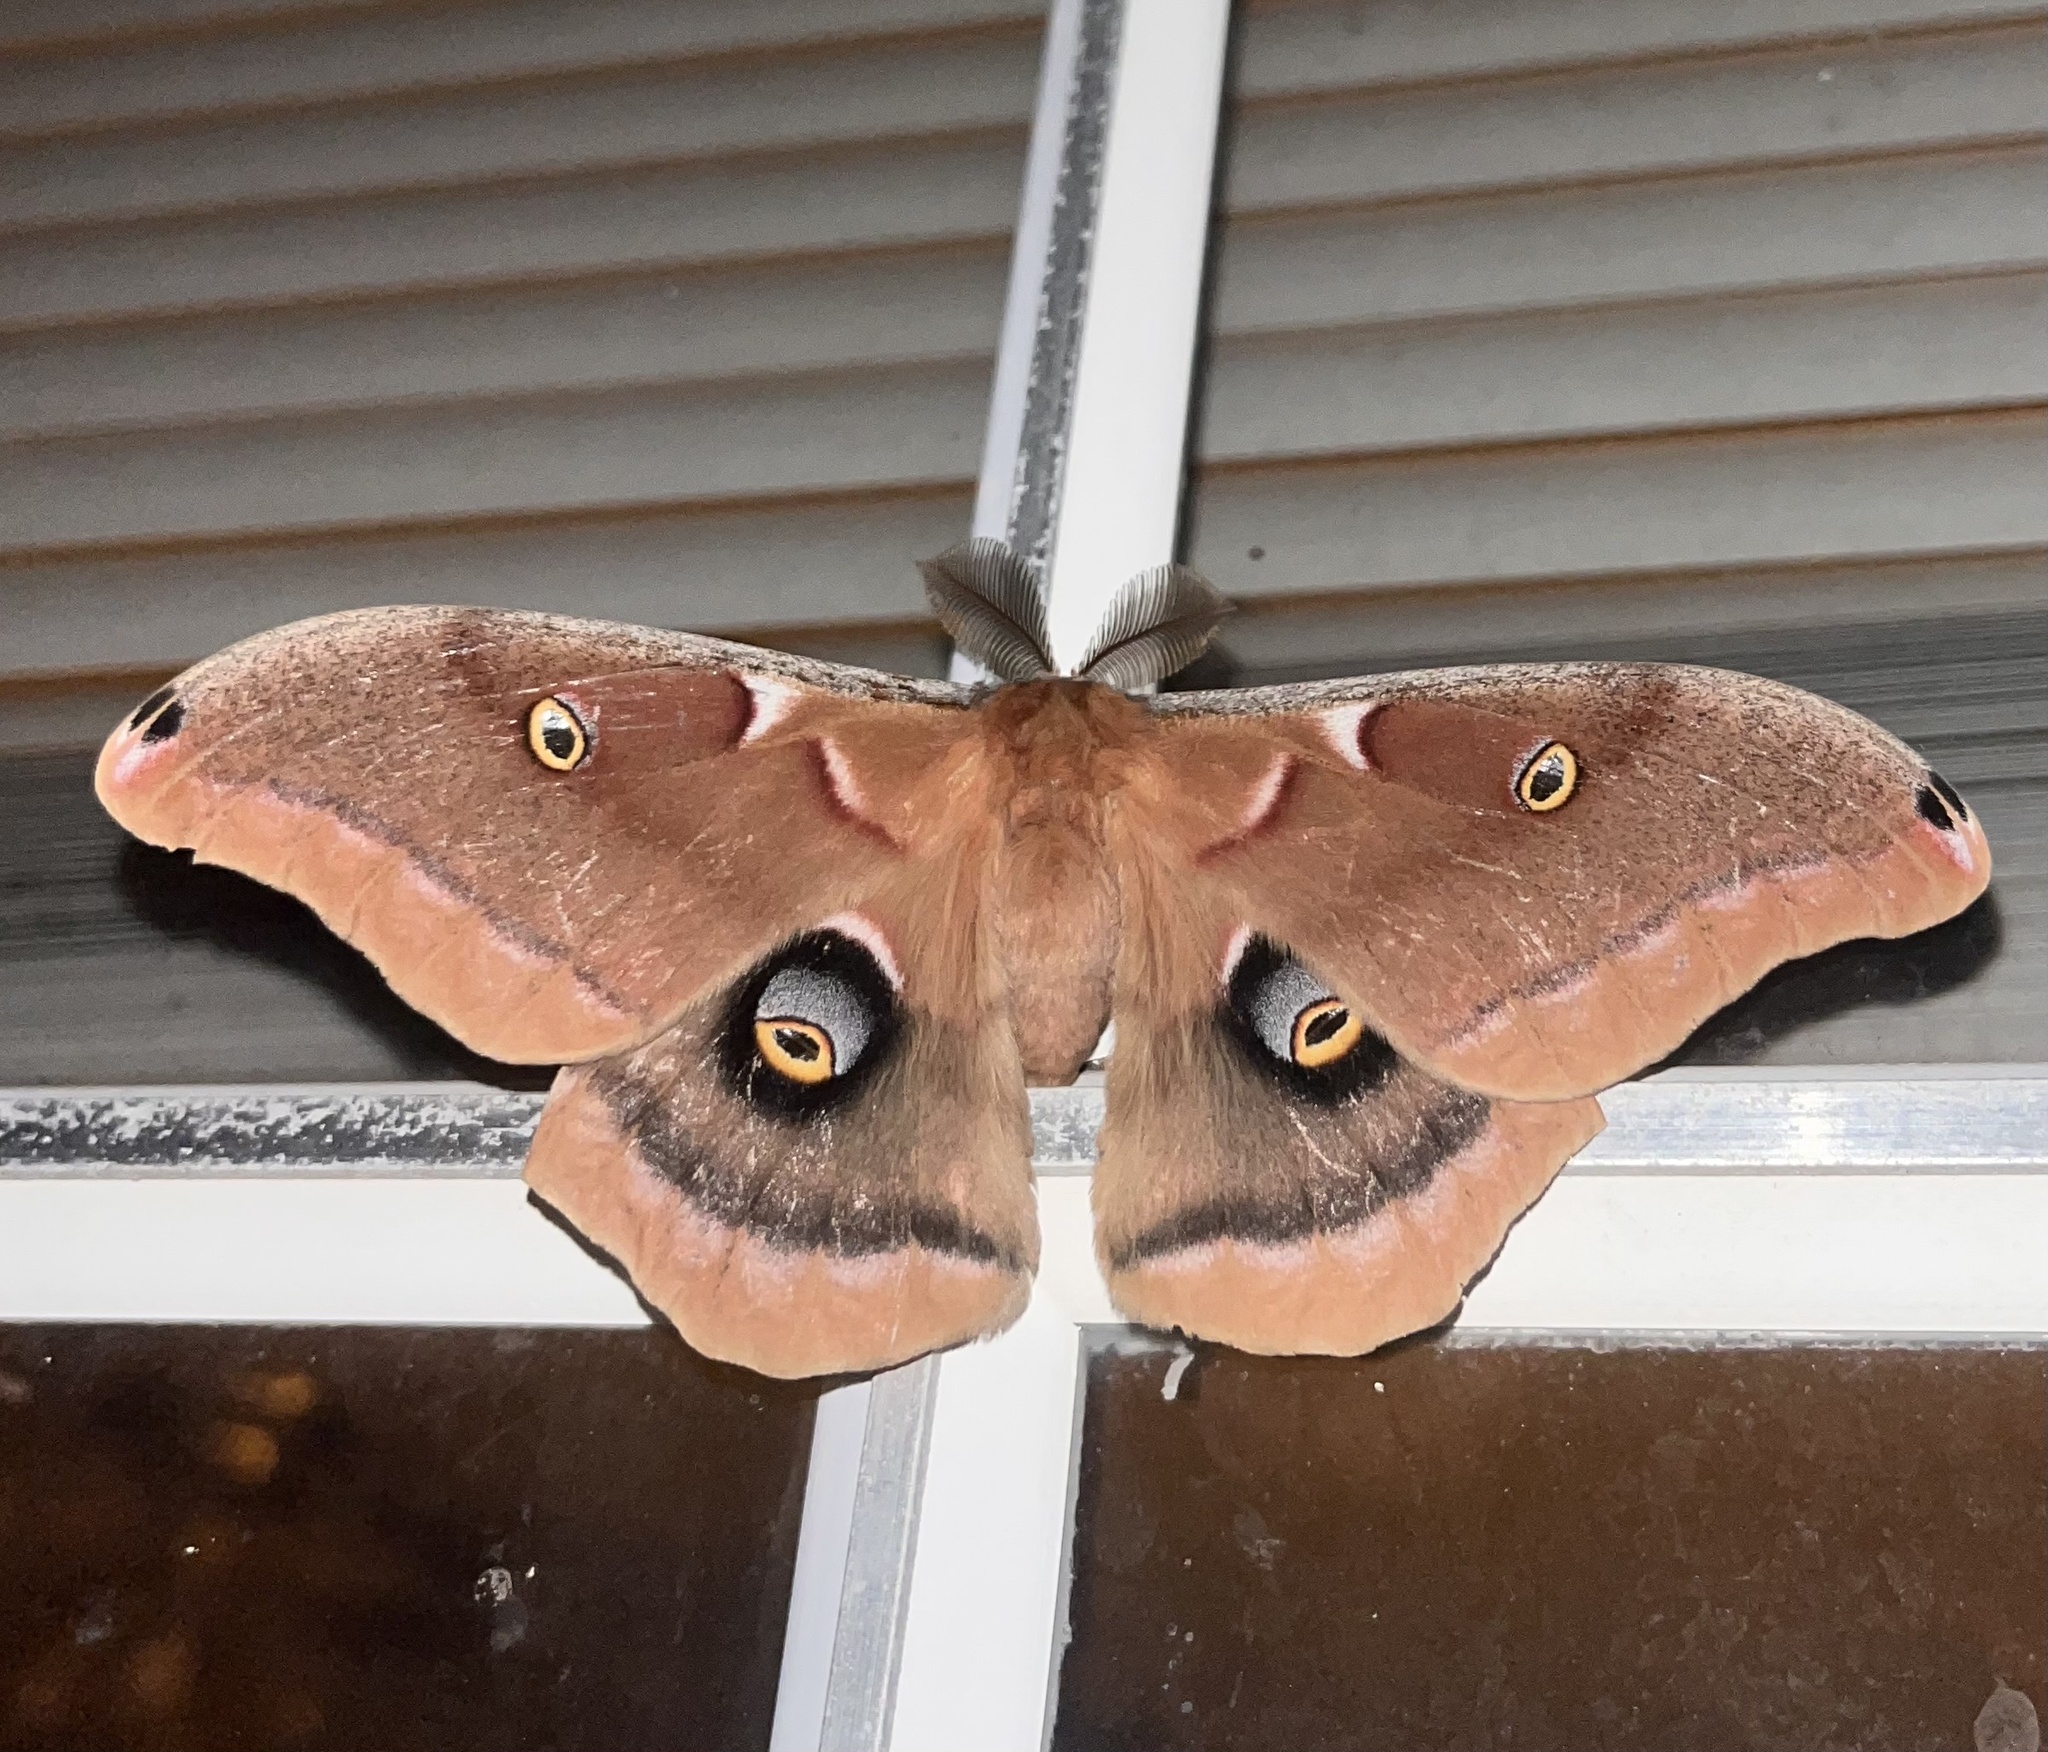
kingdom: Animalia
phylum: Arthropoda
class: Insecta
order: Lepidoptera
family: Saturniidae
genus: Antheraea
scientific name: Antheraea polyphemus
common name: Polyphemus moth
